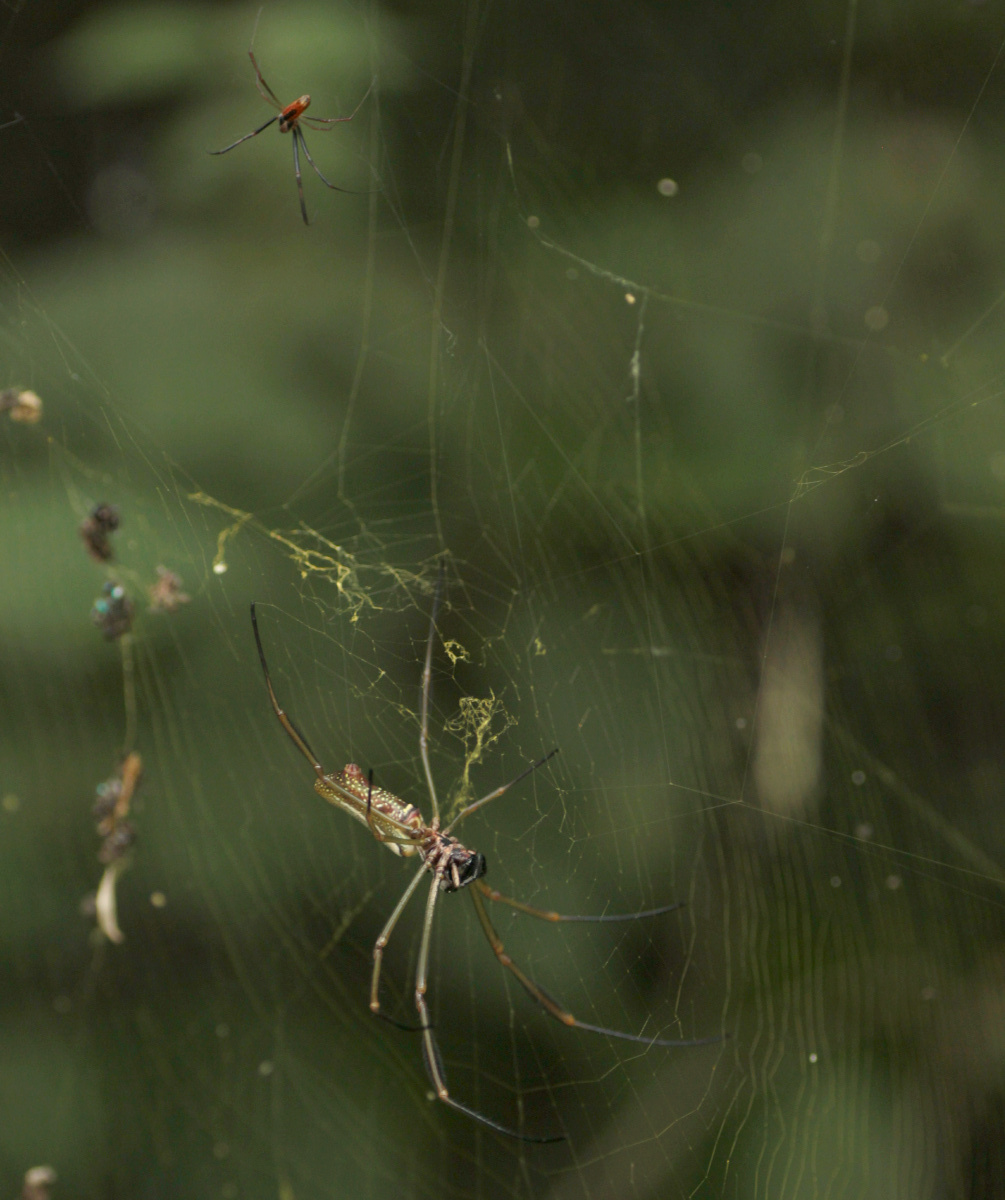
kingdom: Animalia
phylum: Arthropoda
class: Arachnida
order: Araneae
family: Araneidae
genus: Trichonephila
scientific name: Trichonephila clavipes
